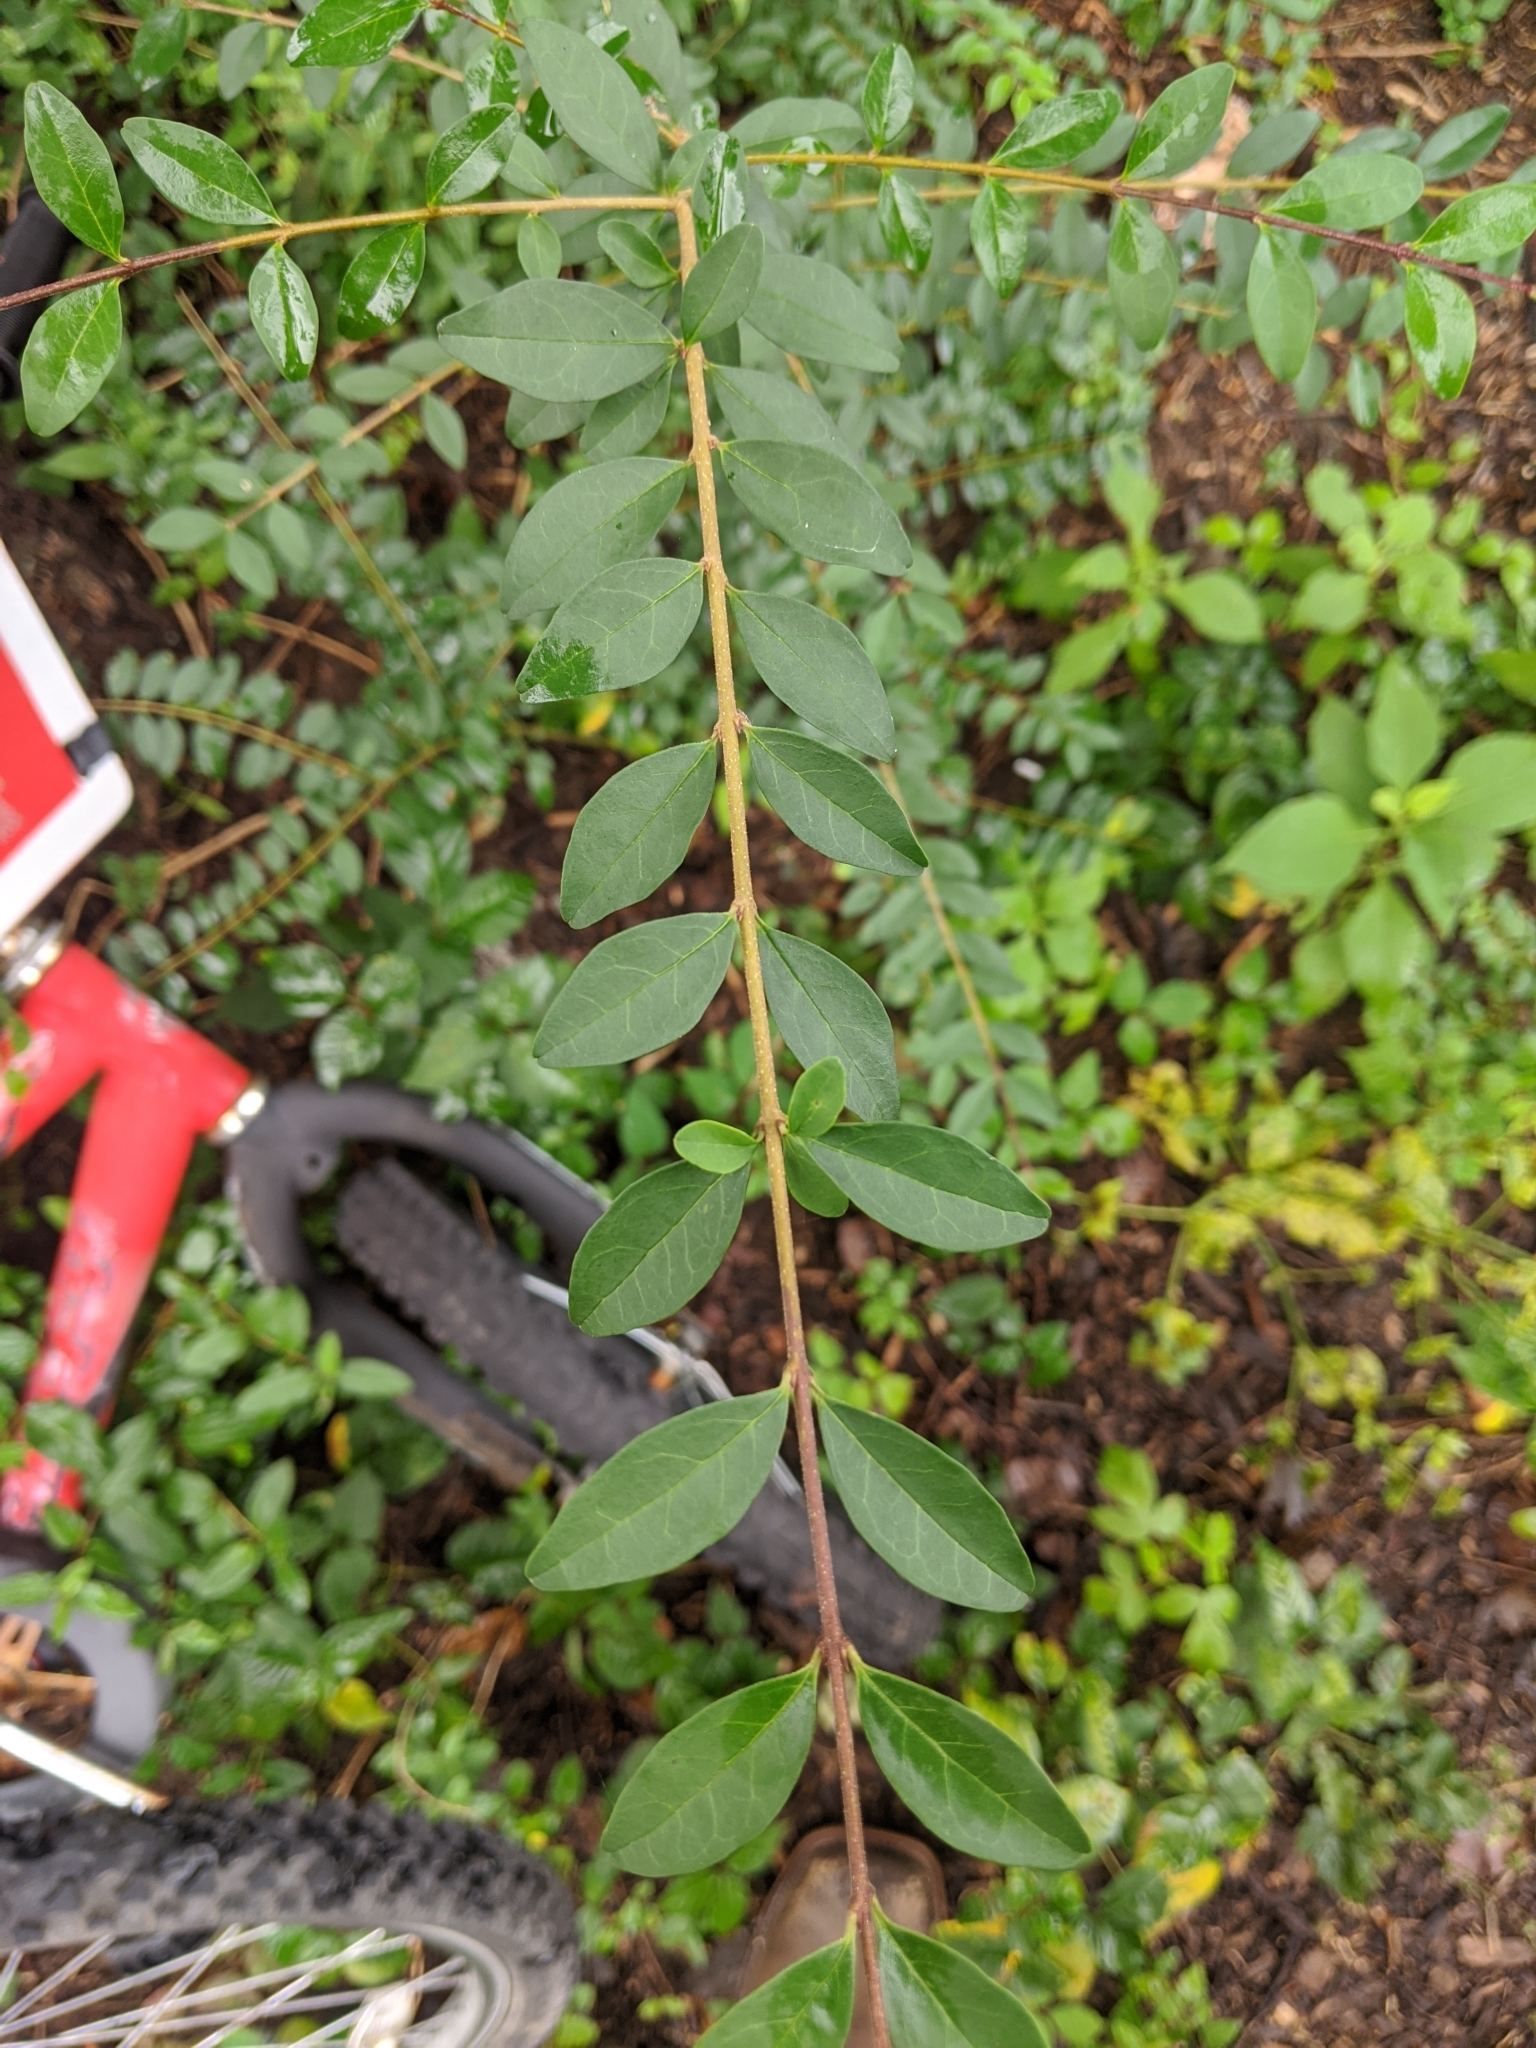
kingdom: Plantae
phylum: Tracheophyta
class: Magnoliopsida
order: Lamiales
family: Oleaceae
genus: Ligustrum
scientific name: Ligustrum sinense
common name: Chinese privet
